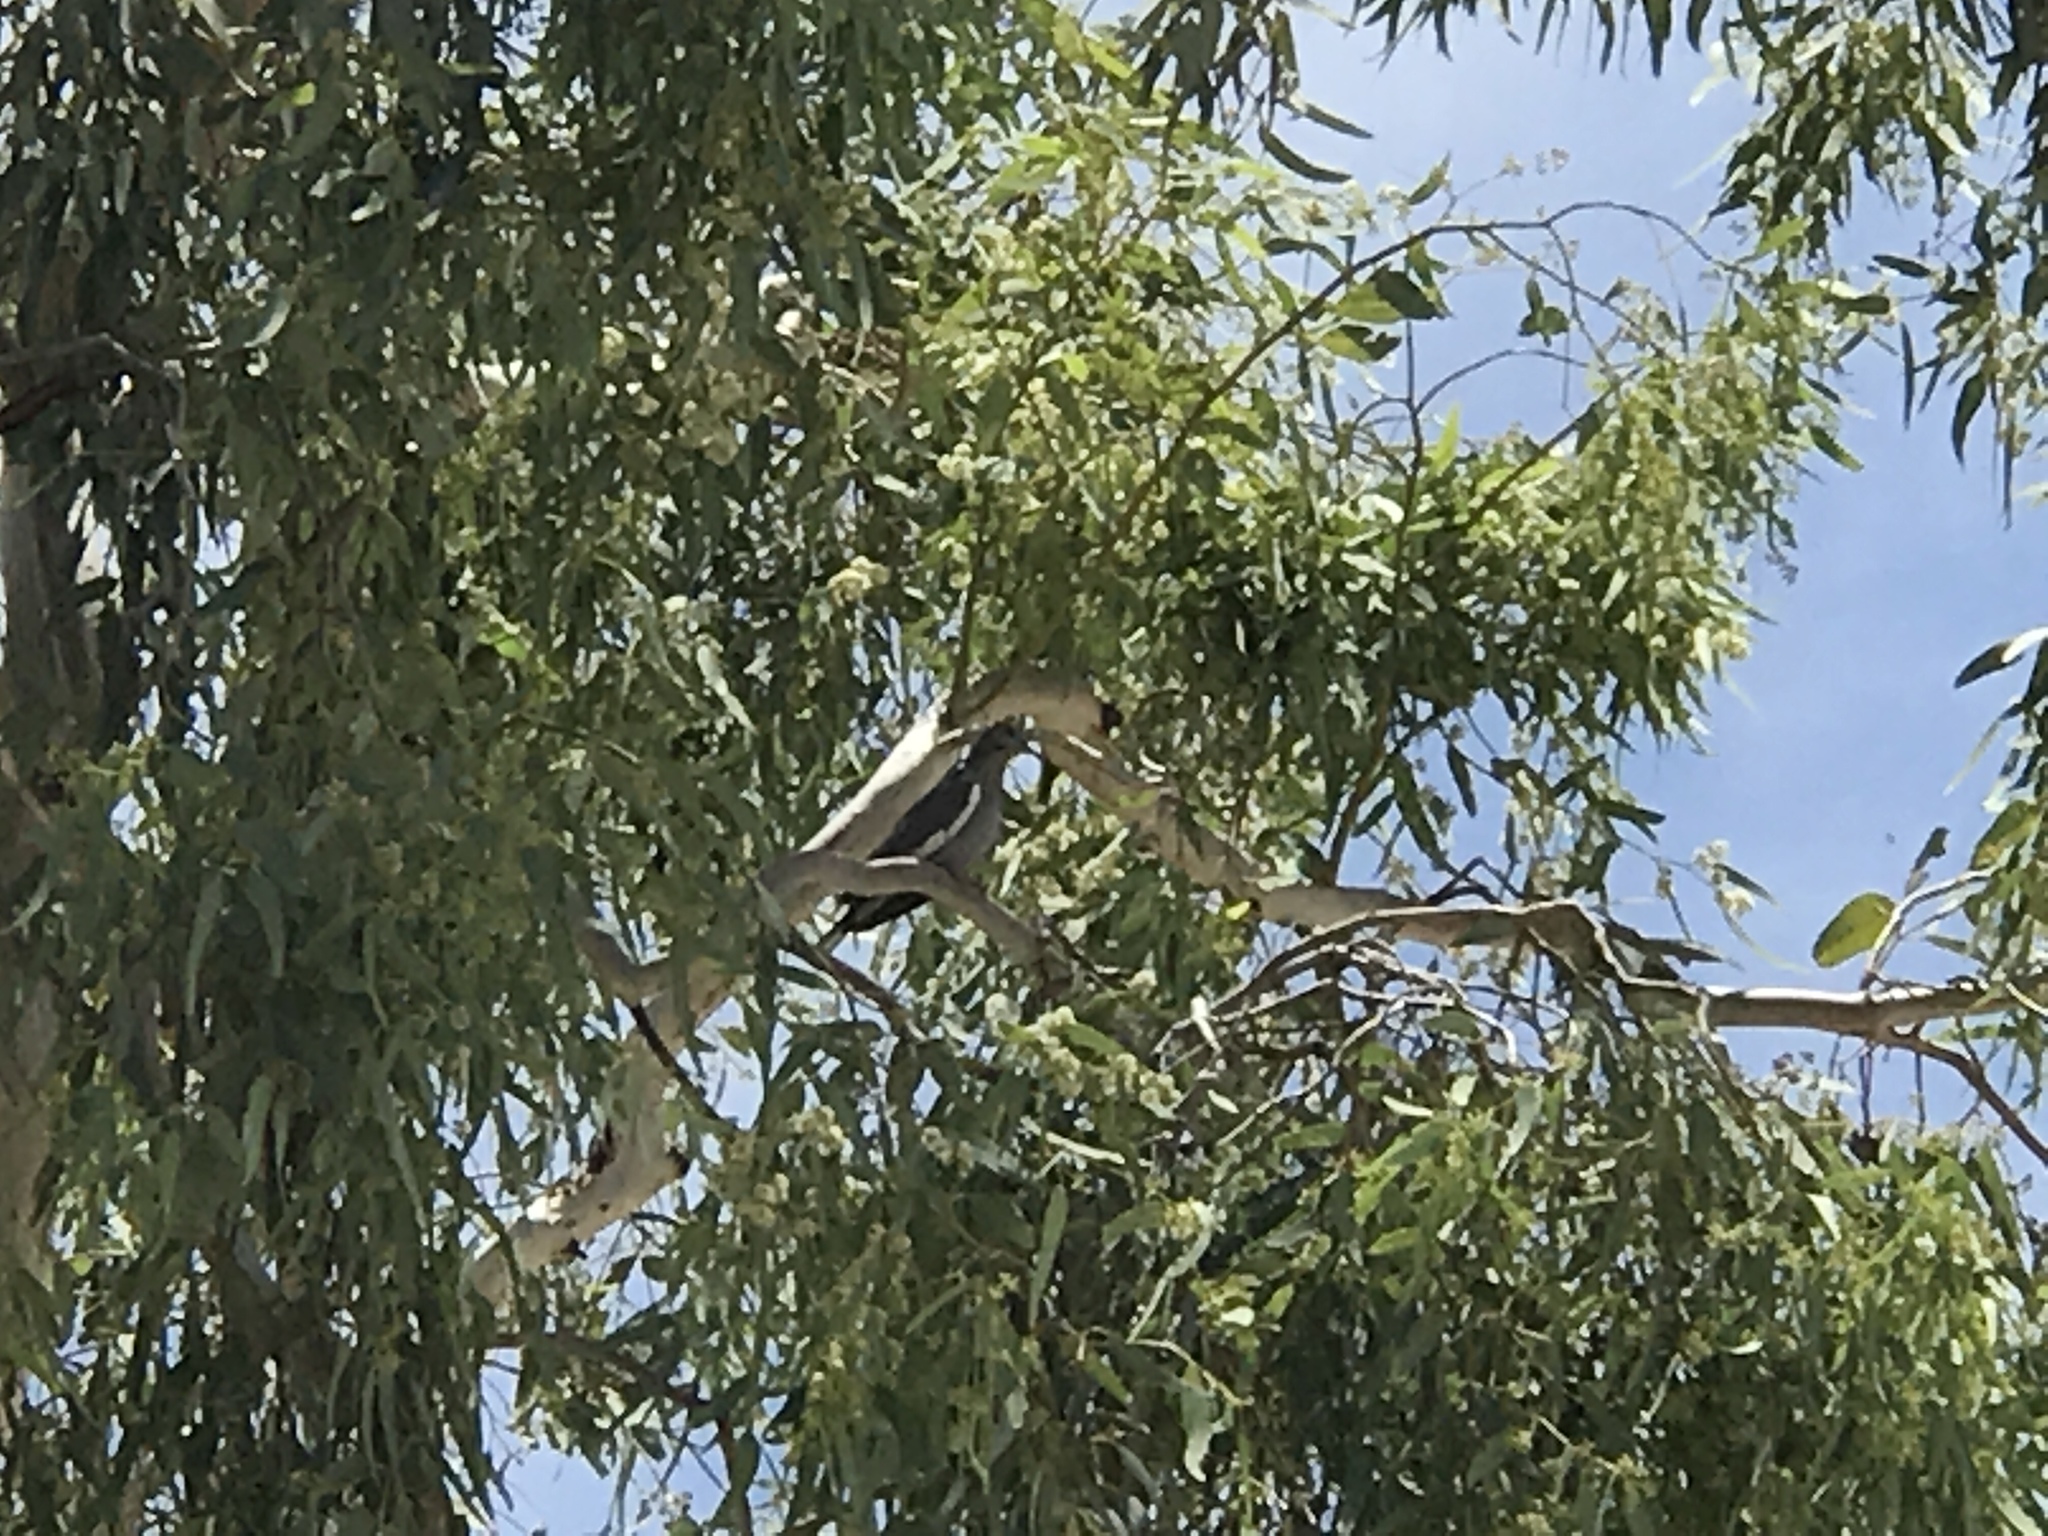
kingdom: Animalia
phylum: Chordata
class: Aves
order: Columbiformes
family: Columbidae
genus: Zenaida
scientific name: Zenaida asiatica
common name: White-winged dove
